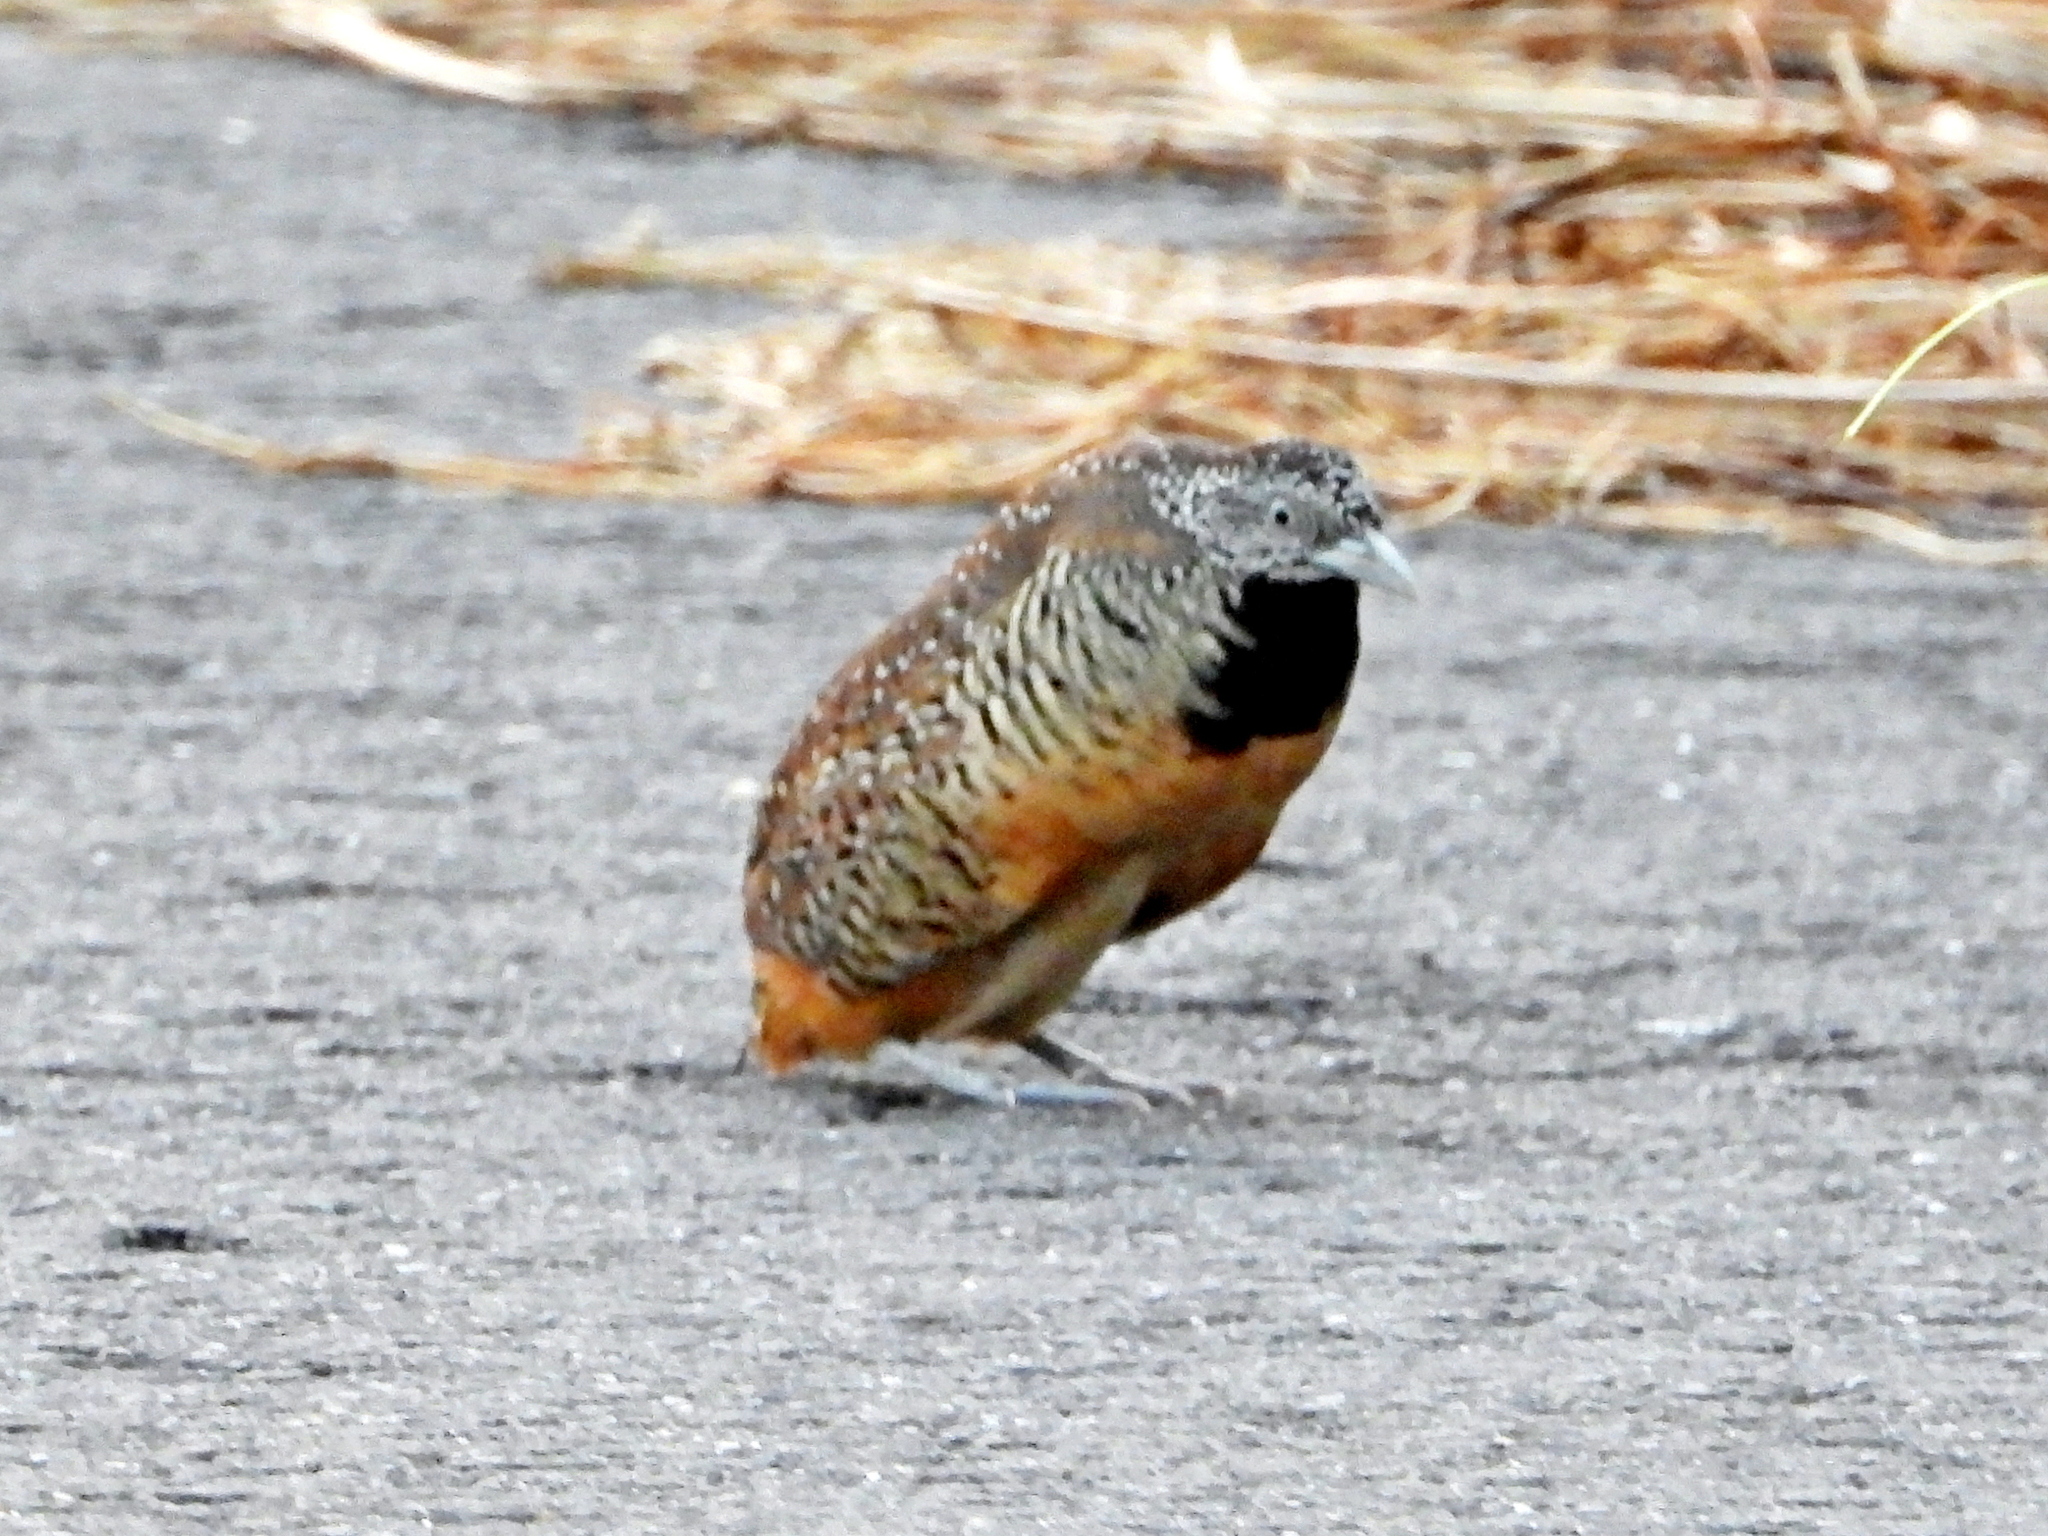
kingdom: Animalia
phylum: Chordata
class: Aves
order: Charadriiformes
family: Turnicidae
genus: Turnix
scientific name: Turnix suscitator
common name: Barred buttonquail
